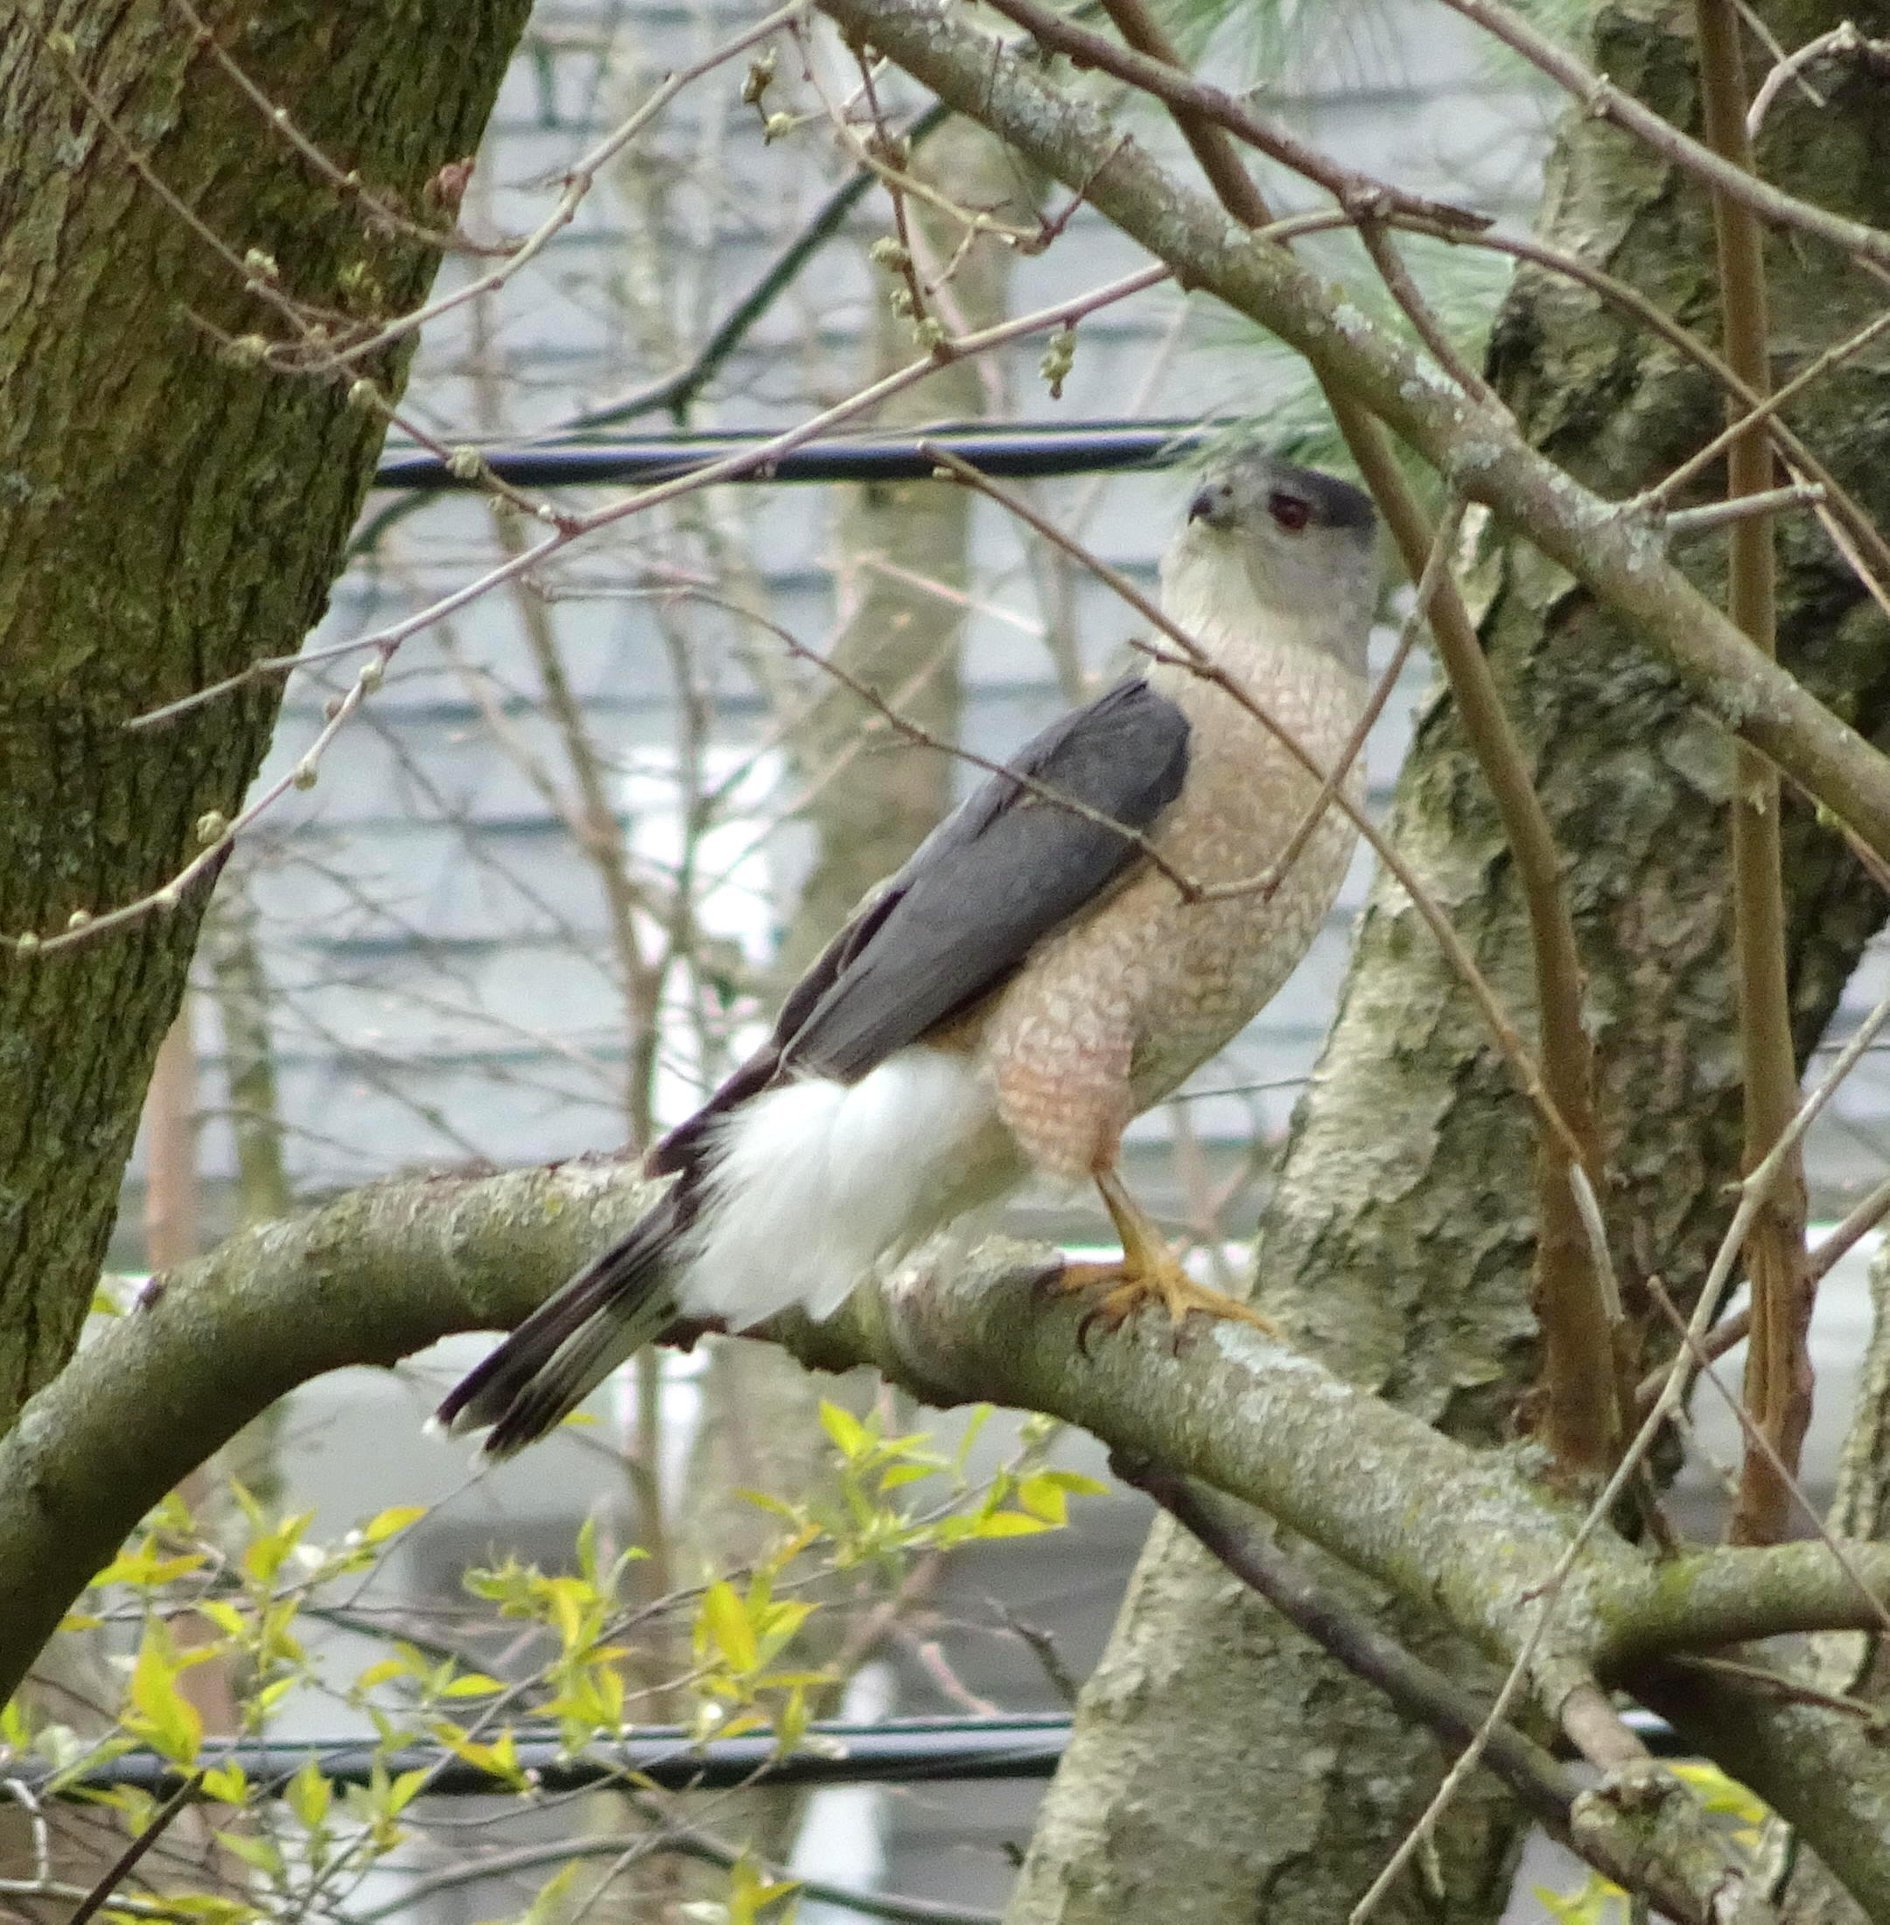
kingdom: Animalia
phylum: Chordata
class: Aves
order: Accipitriformes
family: Accipitridae
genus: Accipiter
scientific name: Accipiter cooperii
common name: Cooper's hawk
